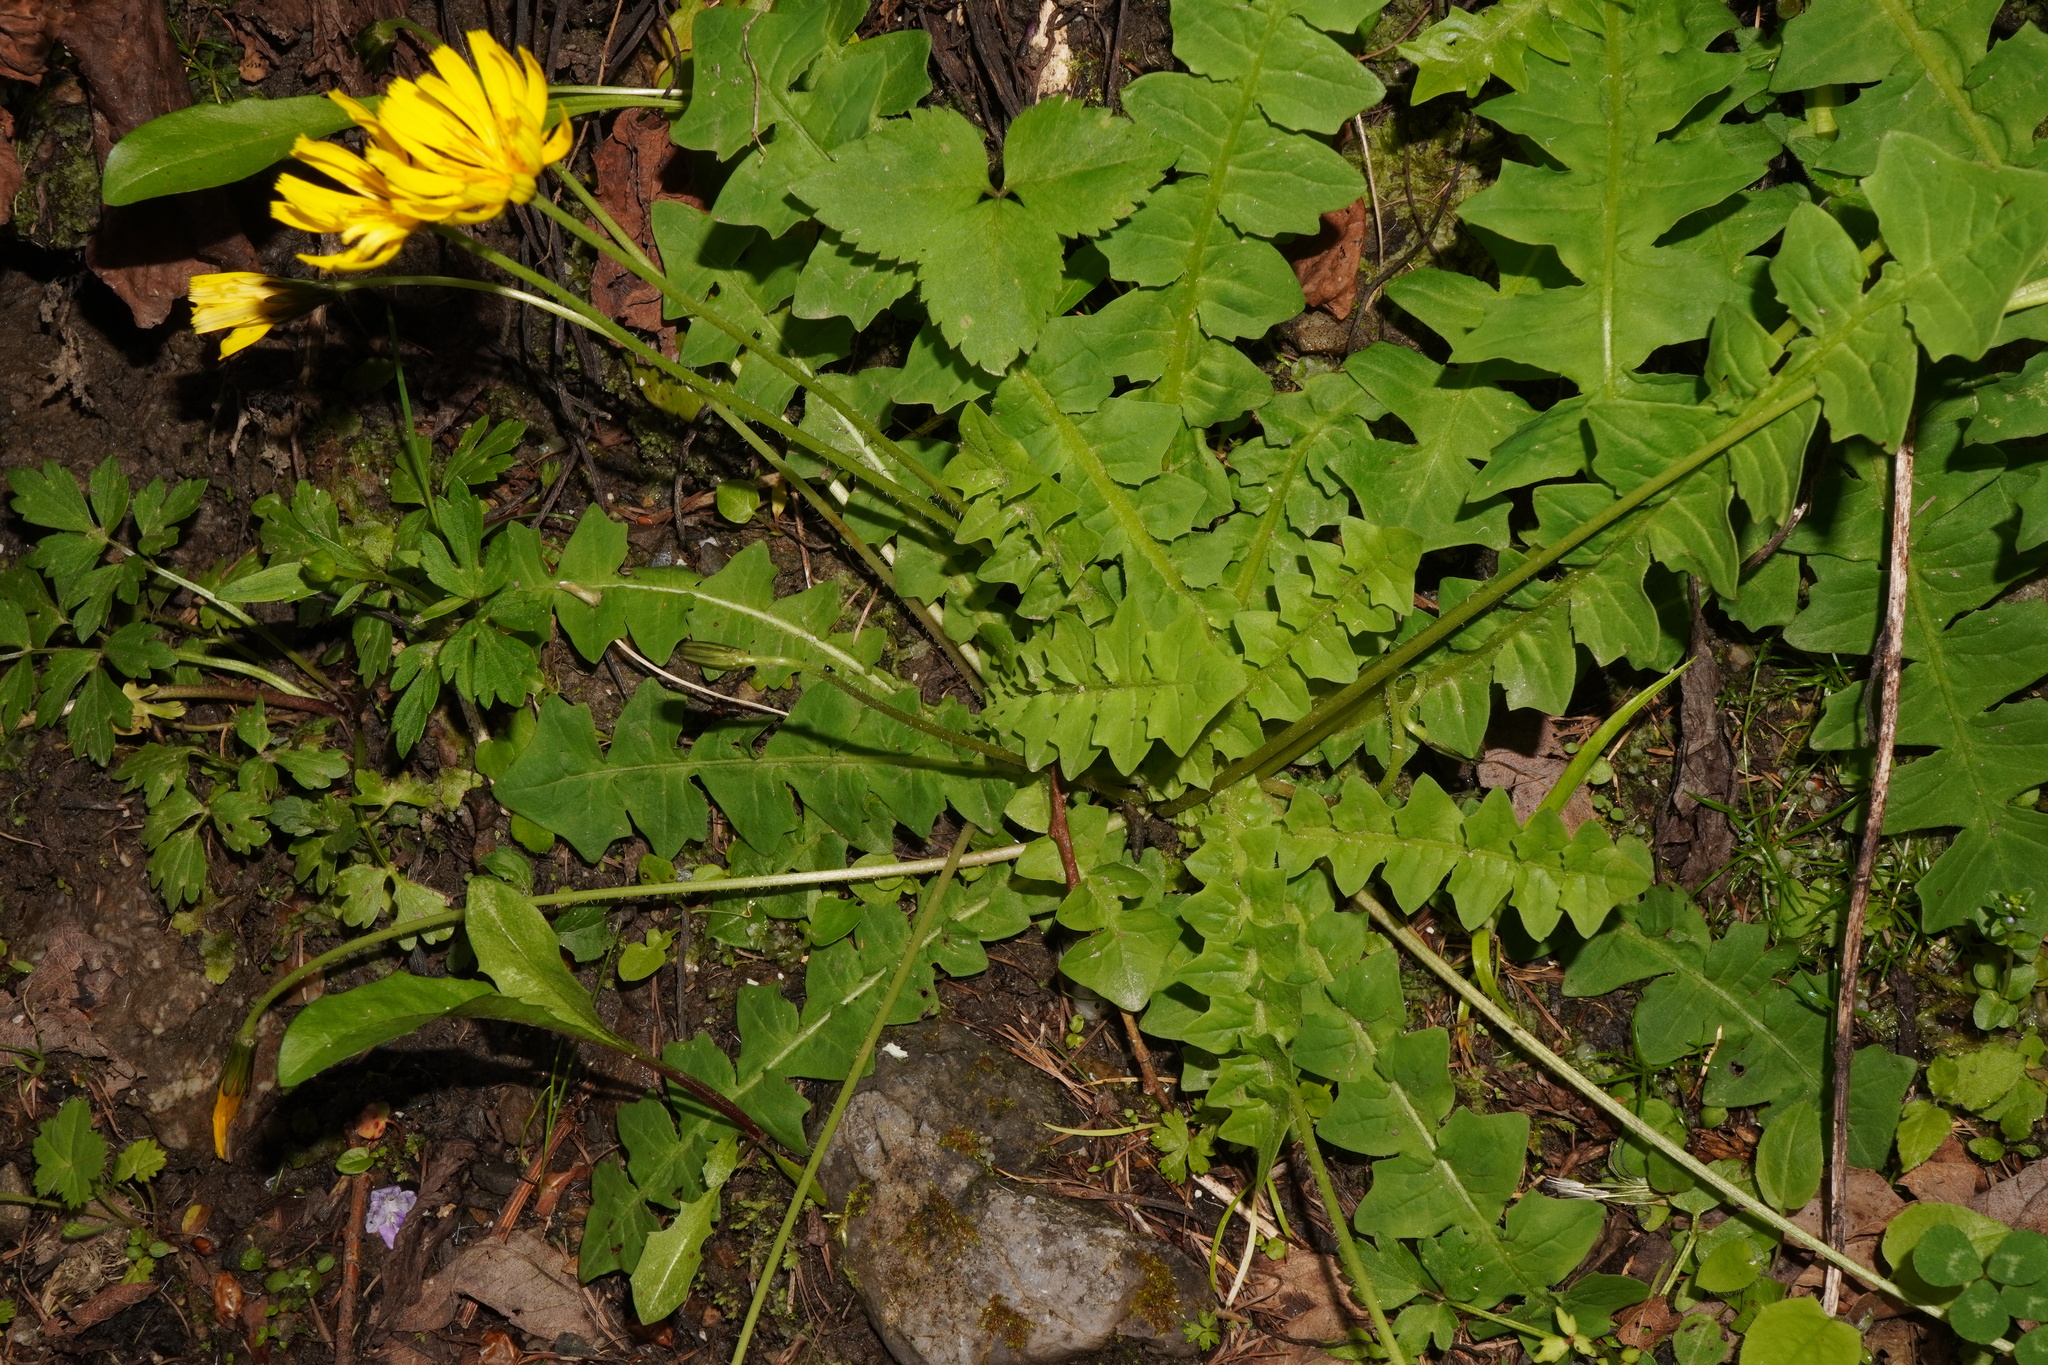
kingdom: Plantae
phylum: Tracheophyta
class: Magnoliopsida
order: Asterales
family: Asteraceae
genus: Aposeris
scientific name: Aposeris foetida
